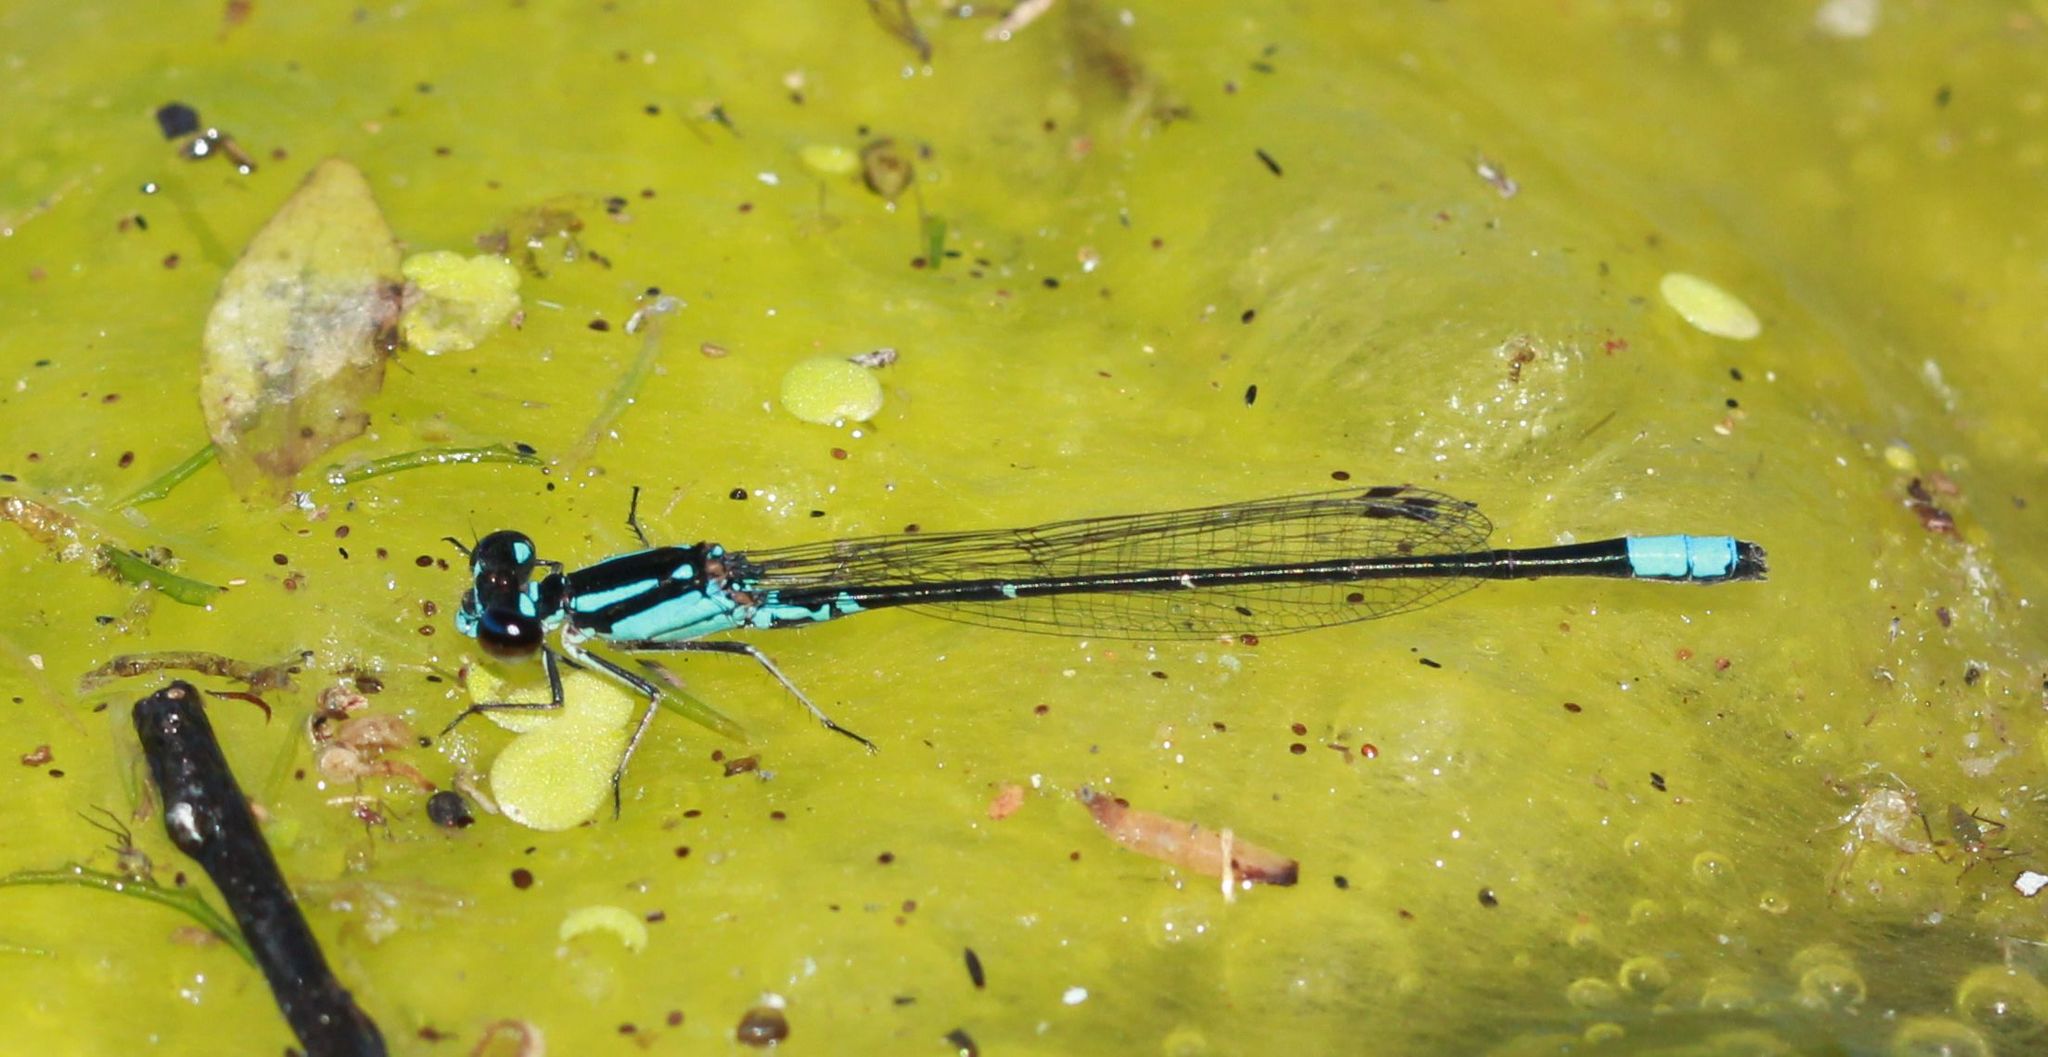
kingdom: Animalia
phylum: Arthropoda
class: Insecta
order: Odonata
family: Coenagrionidae
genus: Enallagma
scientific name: Enallagma geminatum
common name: Skimming bluet
